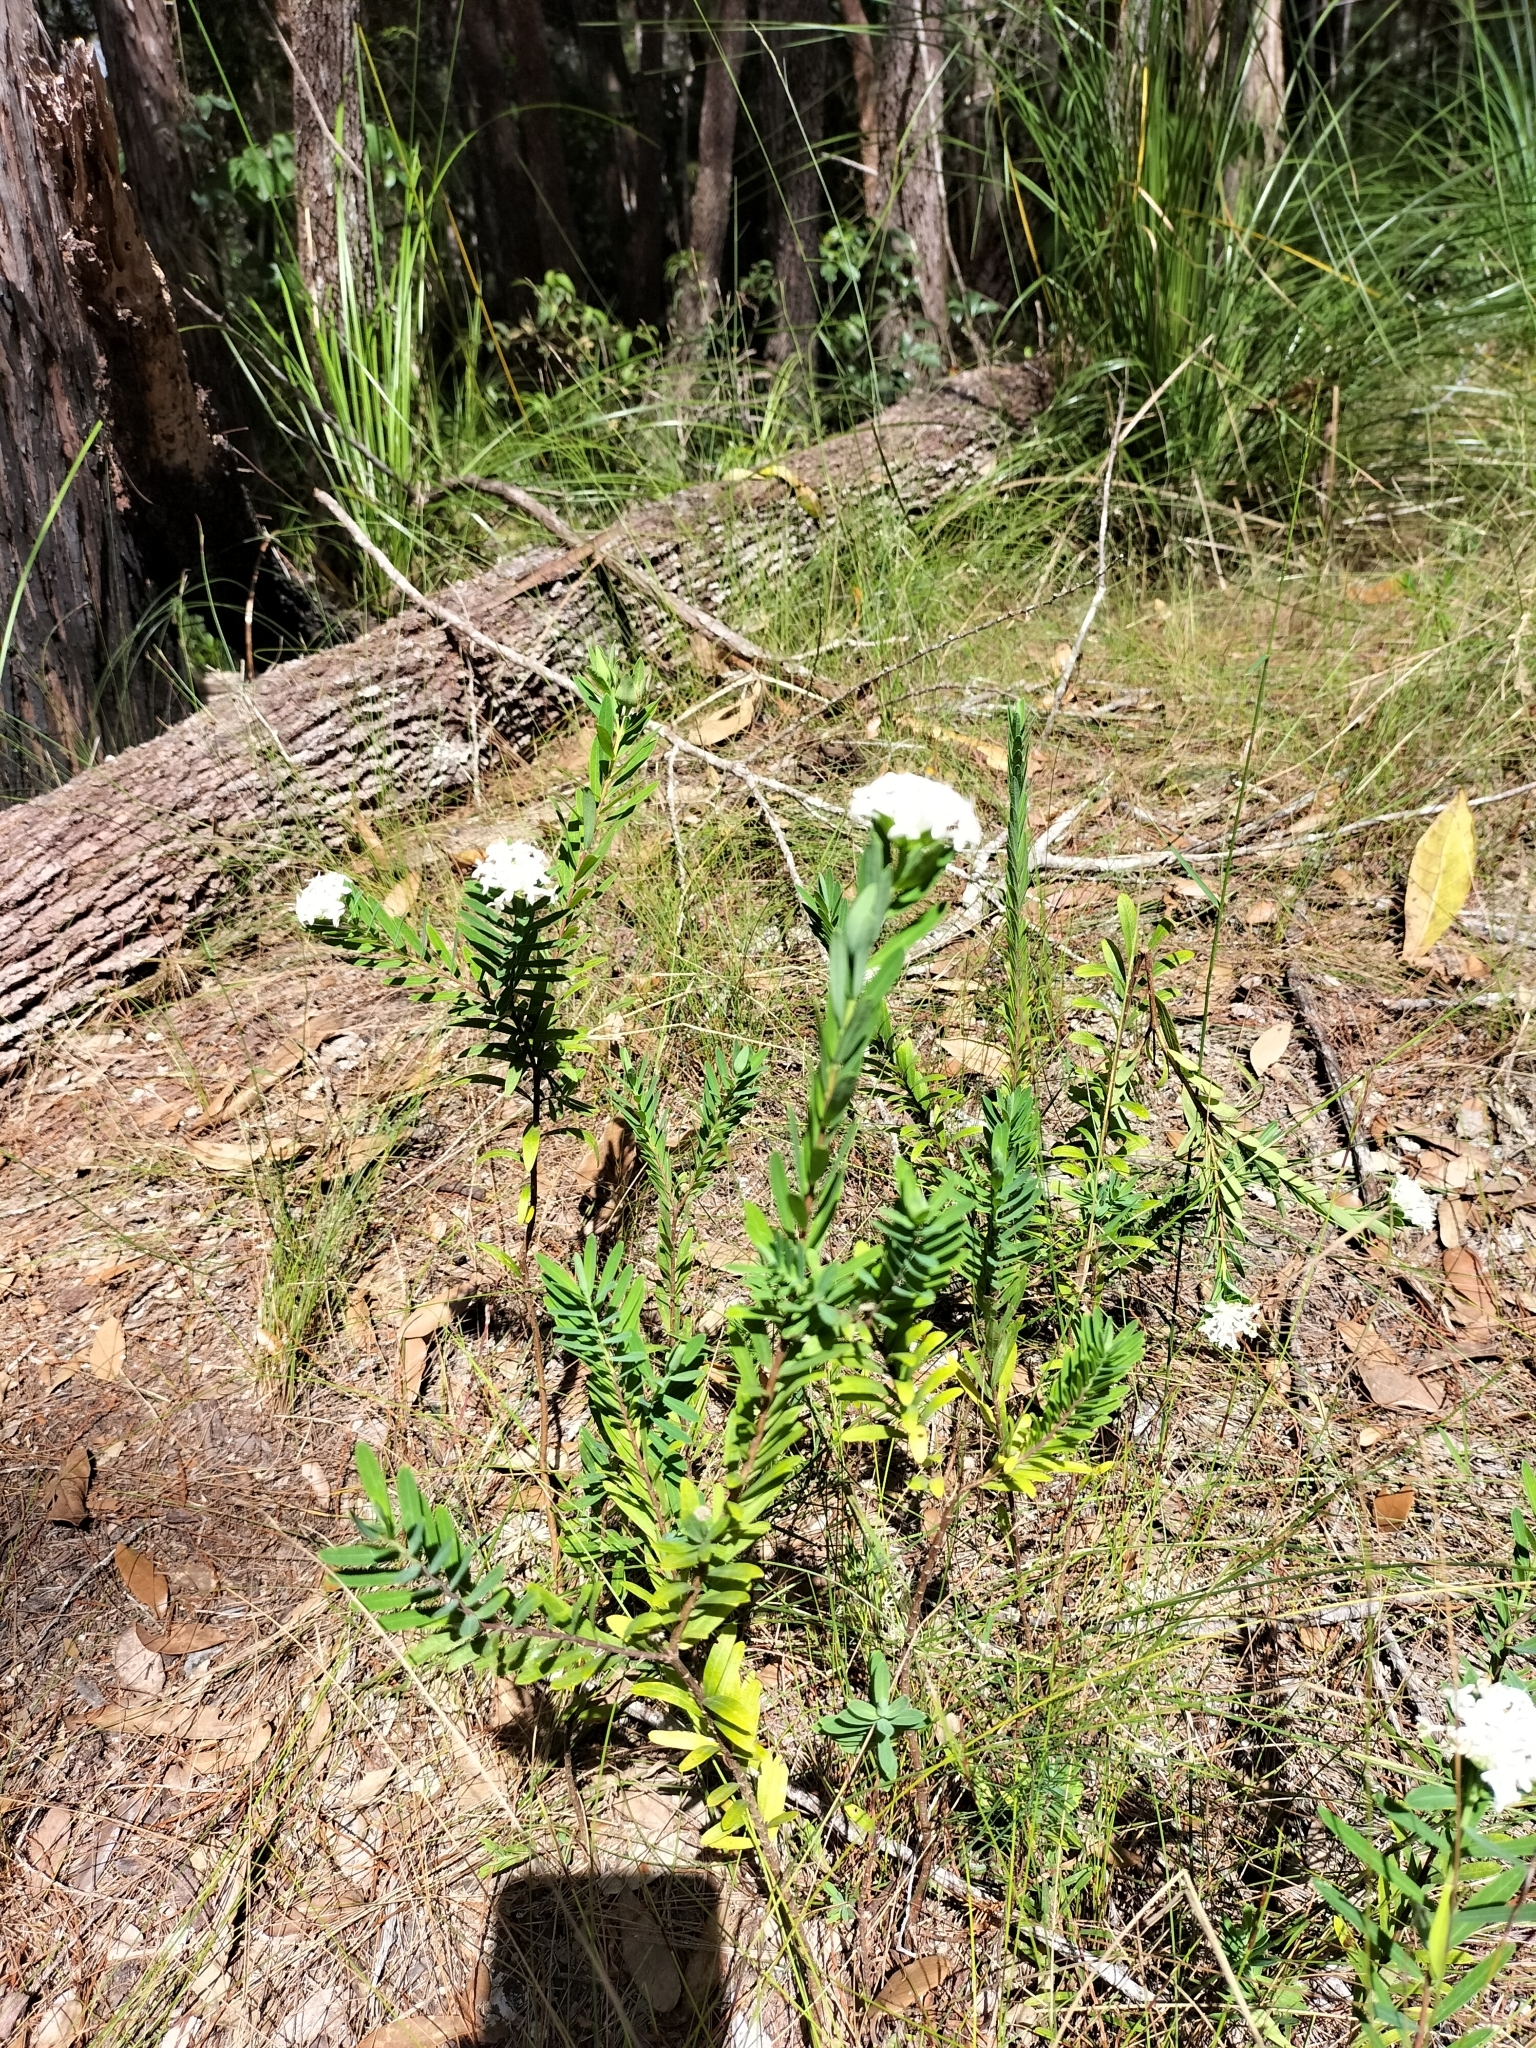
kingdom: Plantae
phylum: Tracheophyta
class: Magnoliopsida
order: Malvales
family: Thymelaeaceae
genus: Pimelea
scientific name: Pimelea linifolia
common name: Queen-of-the-bush
